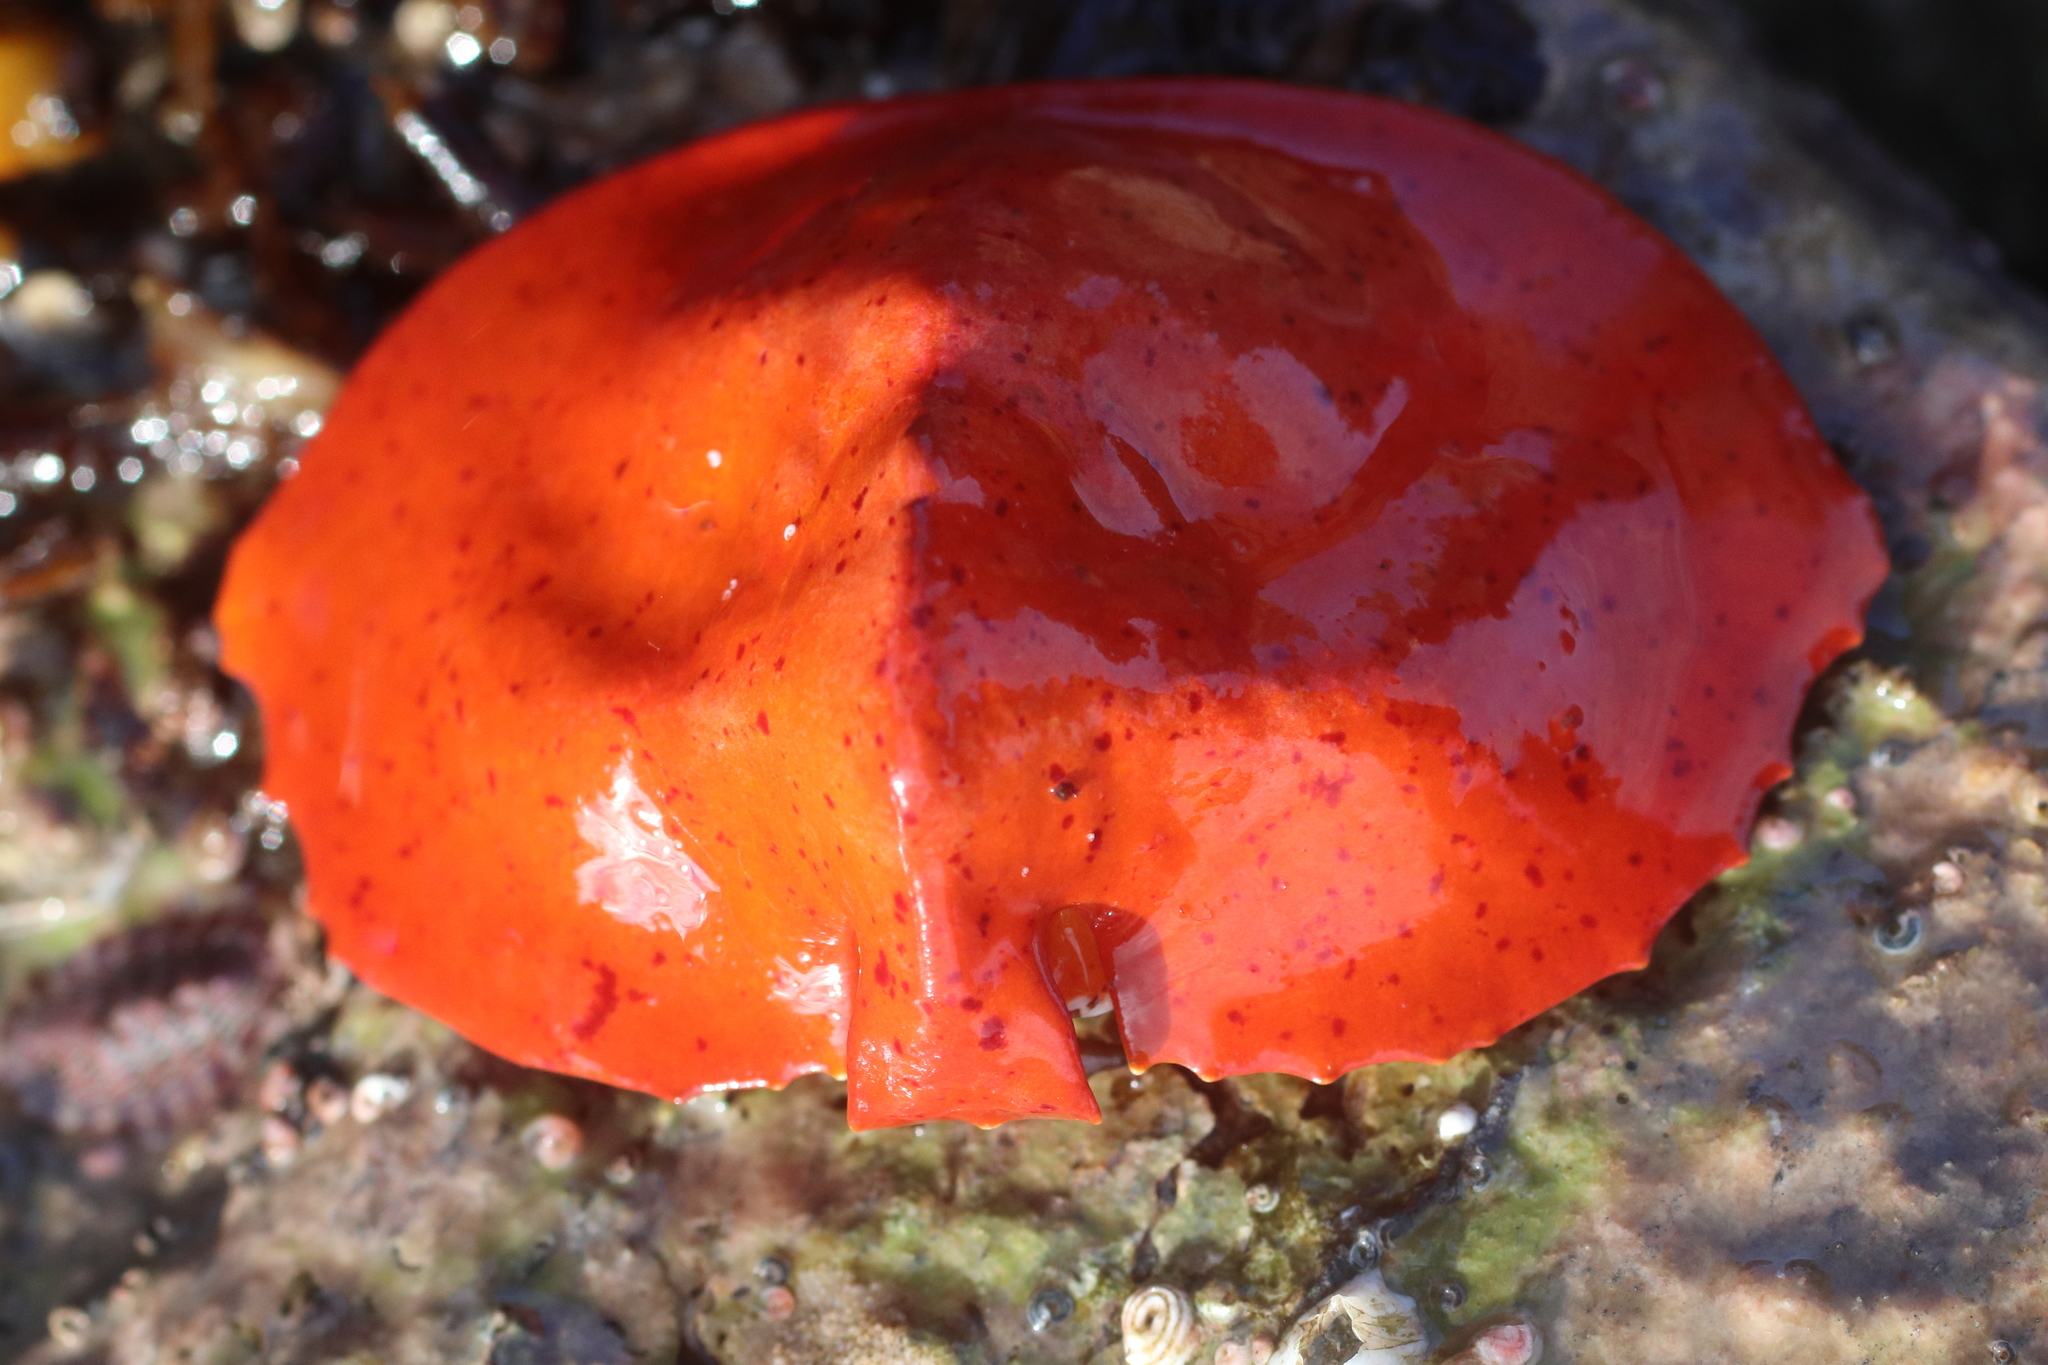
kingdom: Animalia
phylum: Arthropoda
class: Malacostraca
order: Decapoda
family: Lithodidae
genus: Cryptolithodes
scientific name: Cryptolithodes sitchensis
